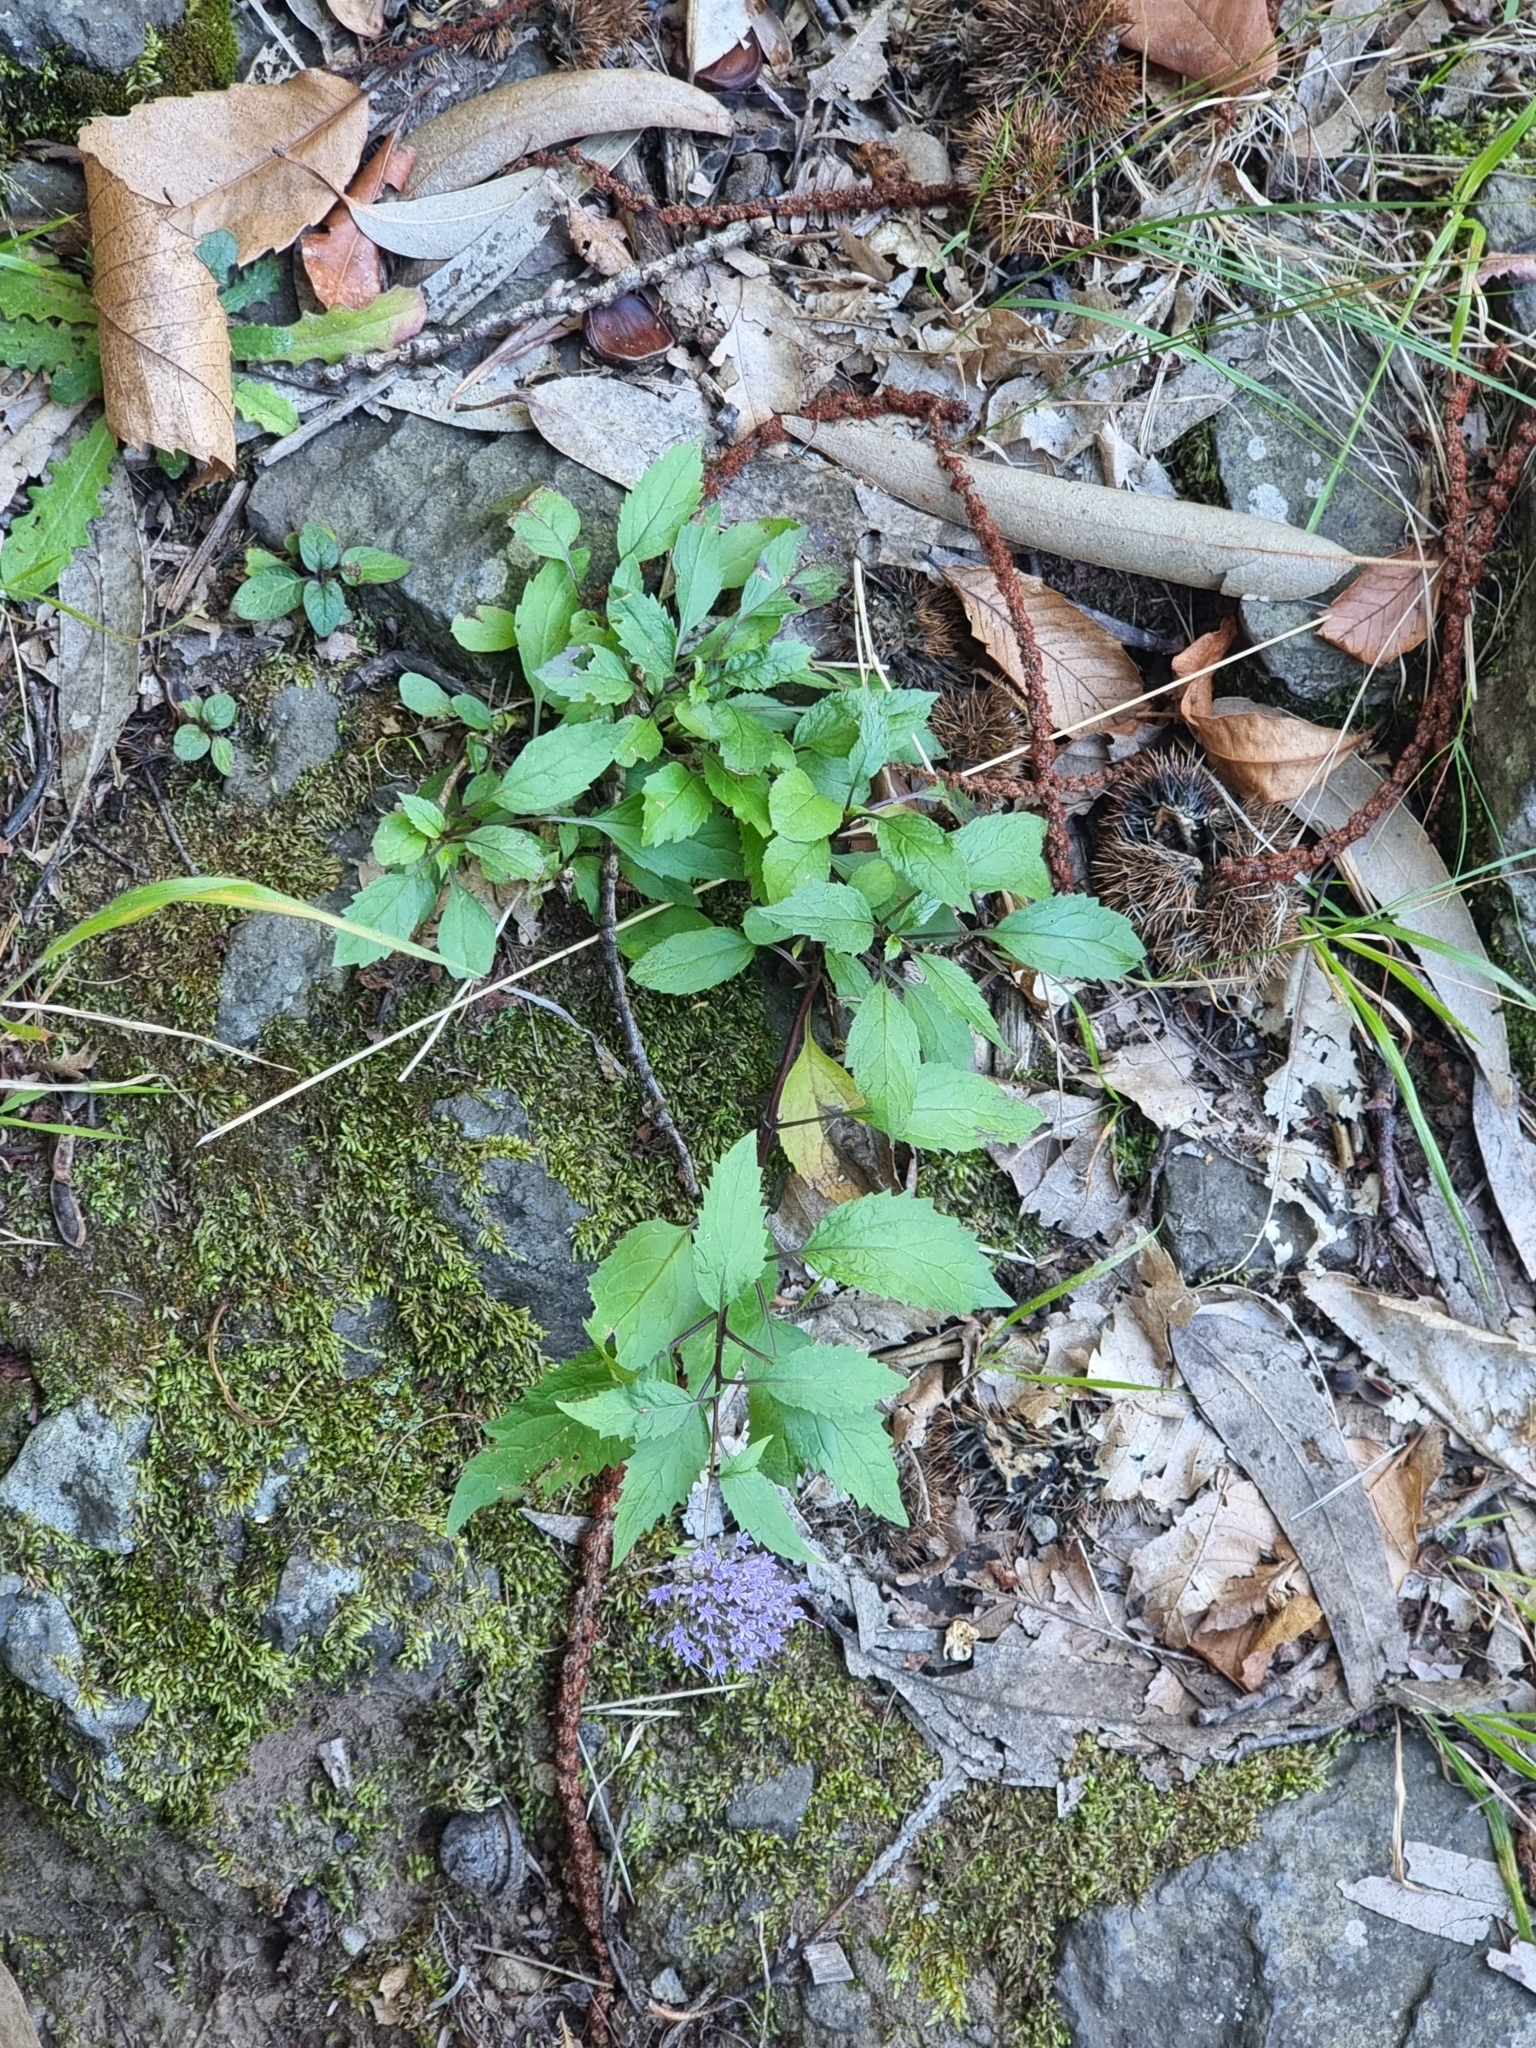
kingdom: Plantae
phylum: Tracheophyta
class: Magnoliopsida
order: Asterales
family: Campanulaceae
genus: Trachelium
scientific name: Trachelium caeruleum
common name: Throatwort
